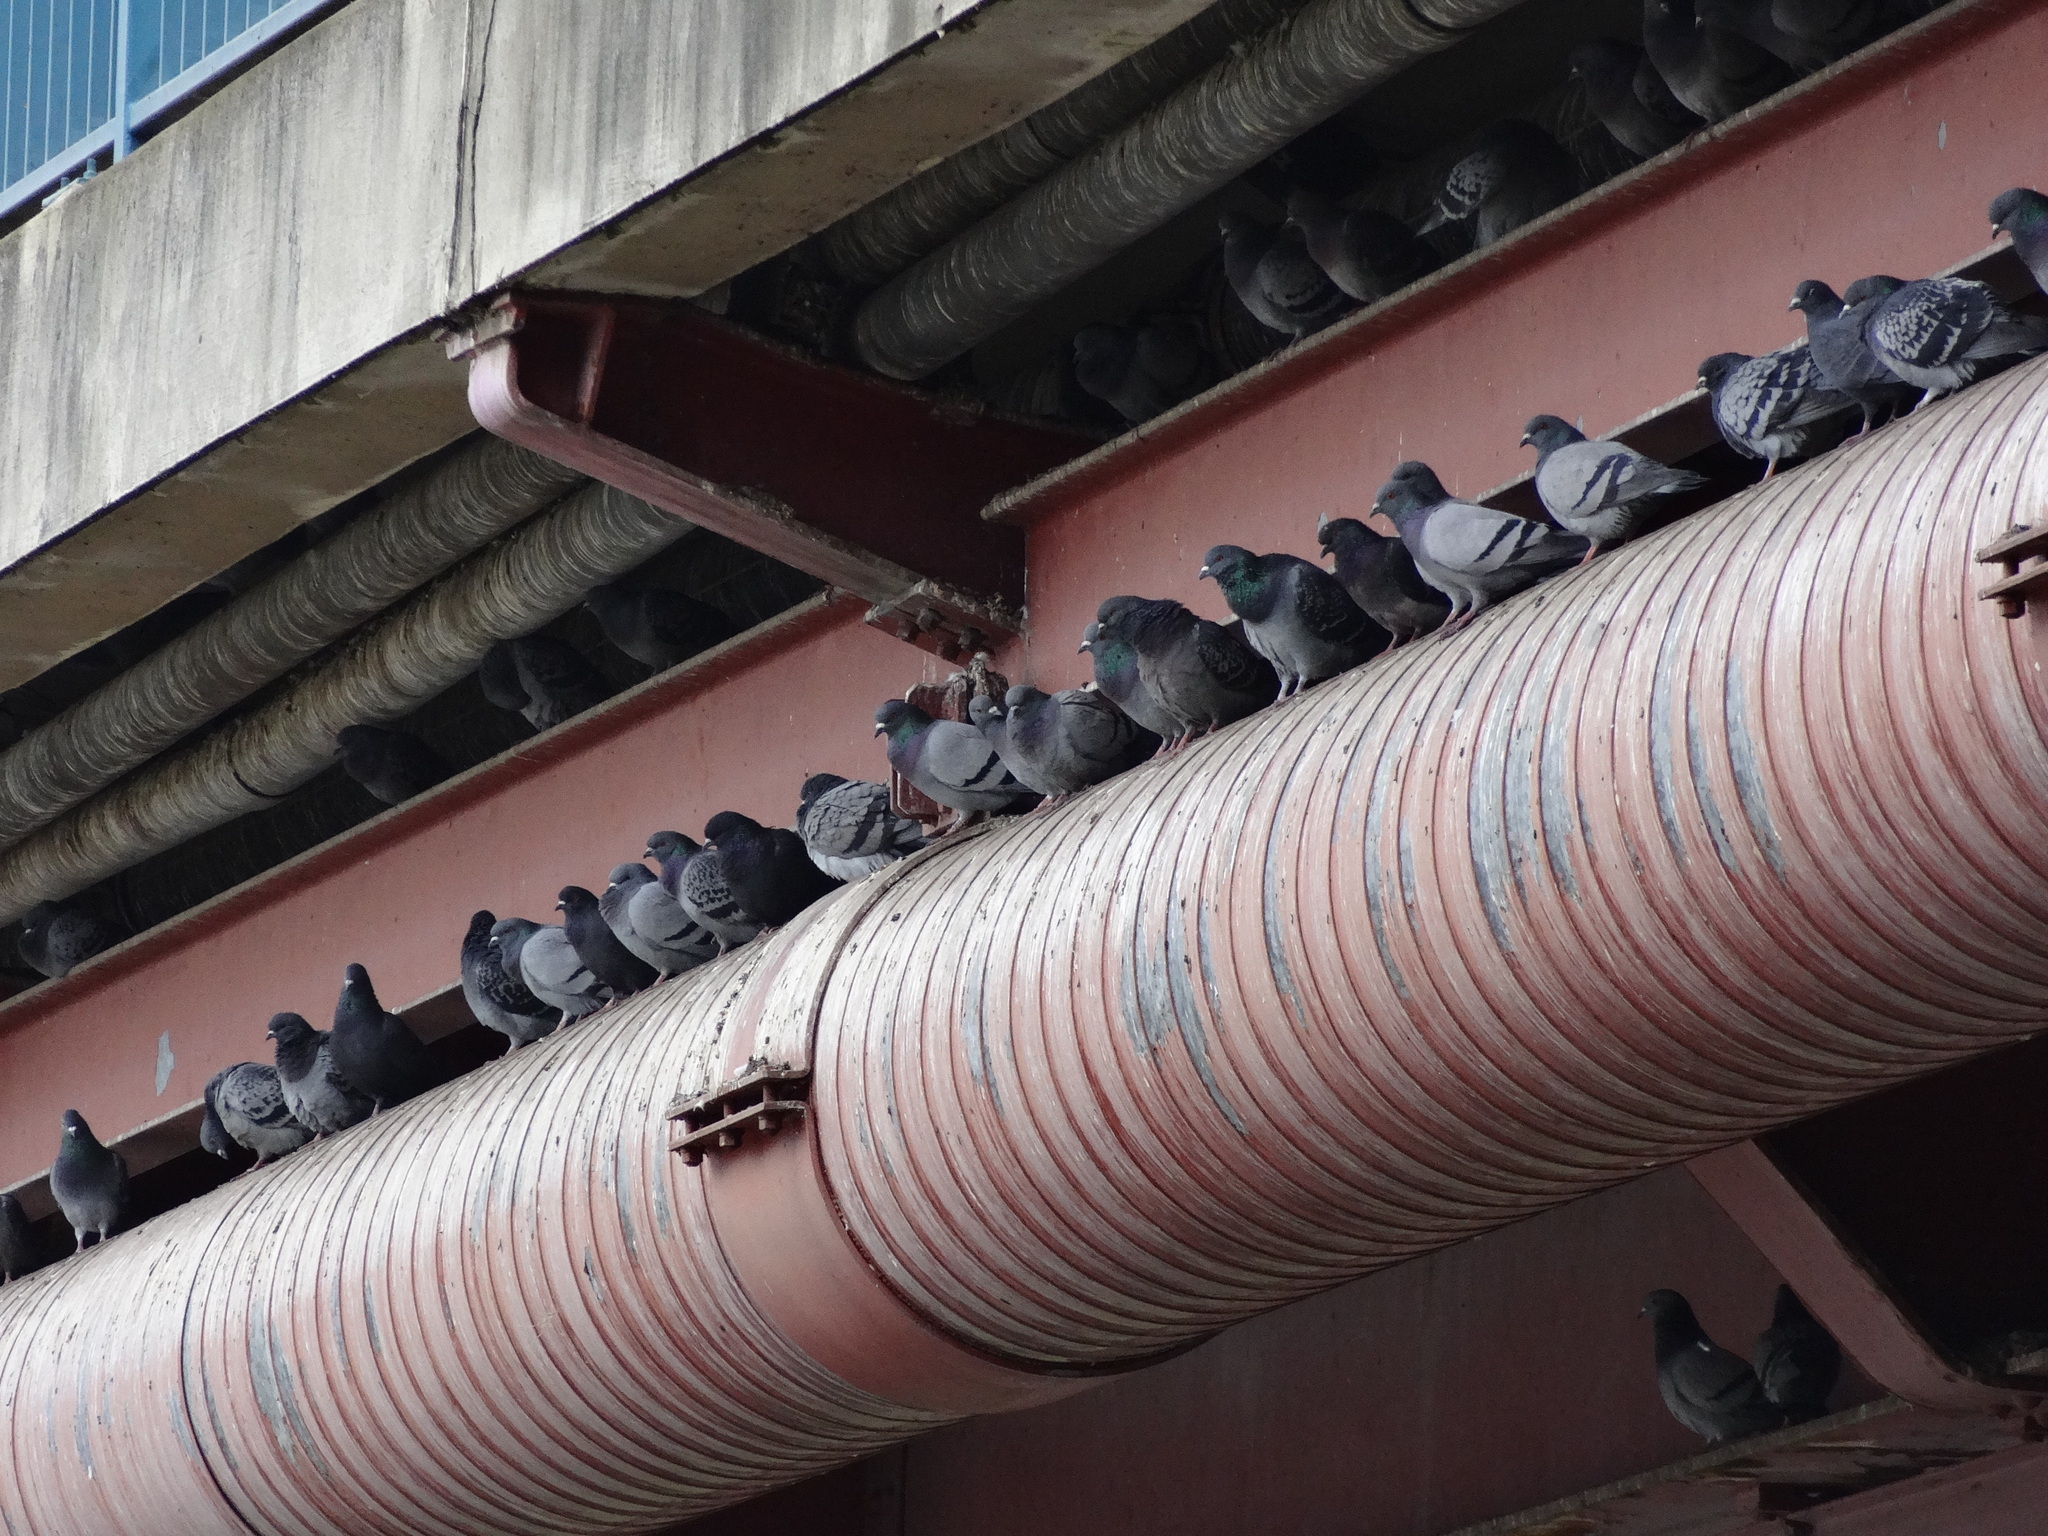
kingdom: Animalia
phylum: Chordata
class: Aves
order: Columbiformes
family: Columbidae
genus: Columba
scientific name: Columba livia
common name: Rock pigeon
